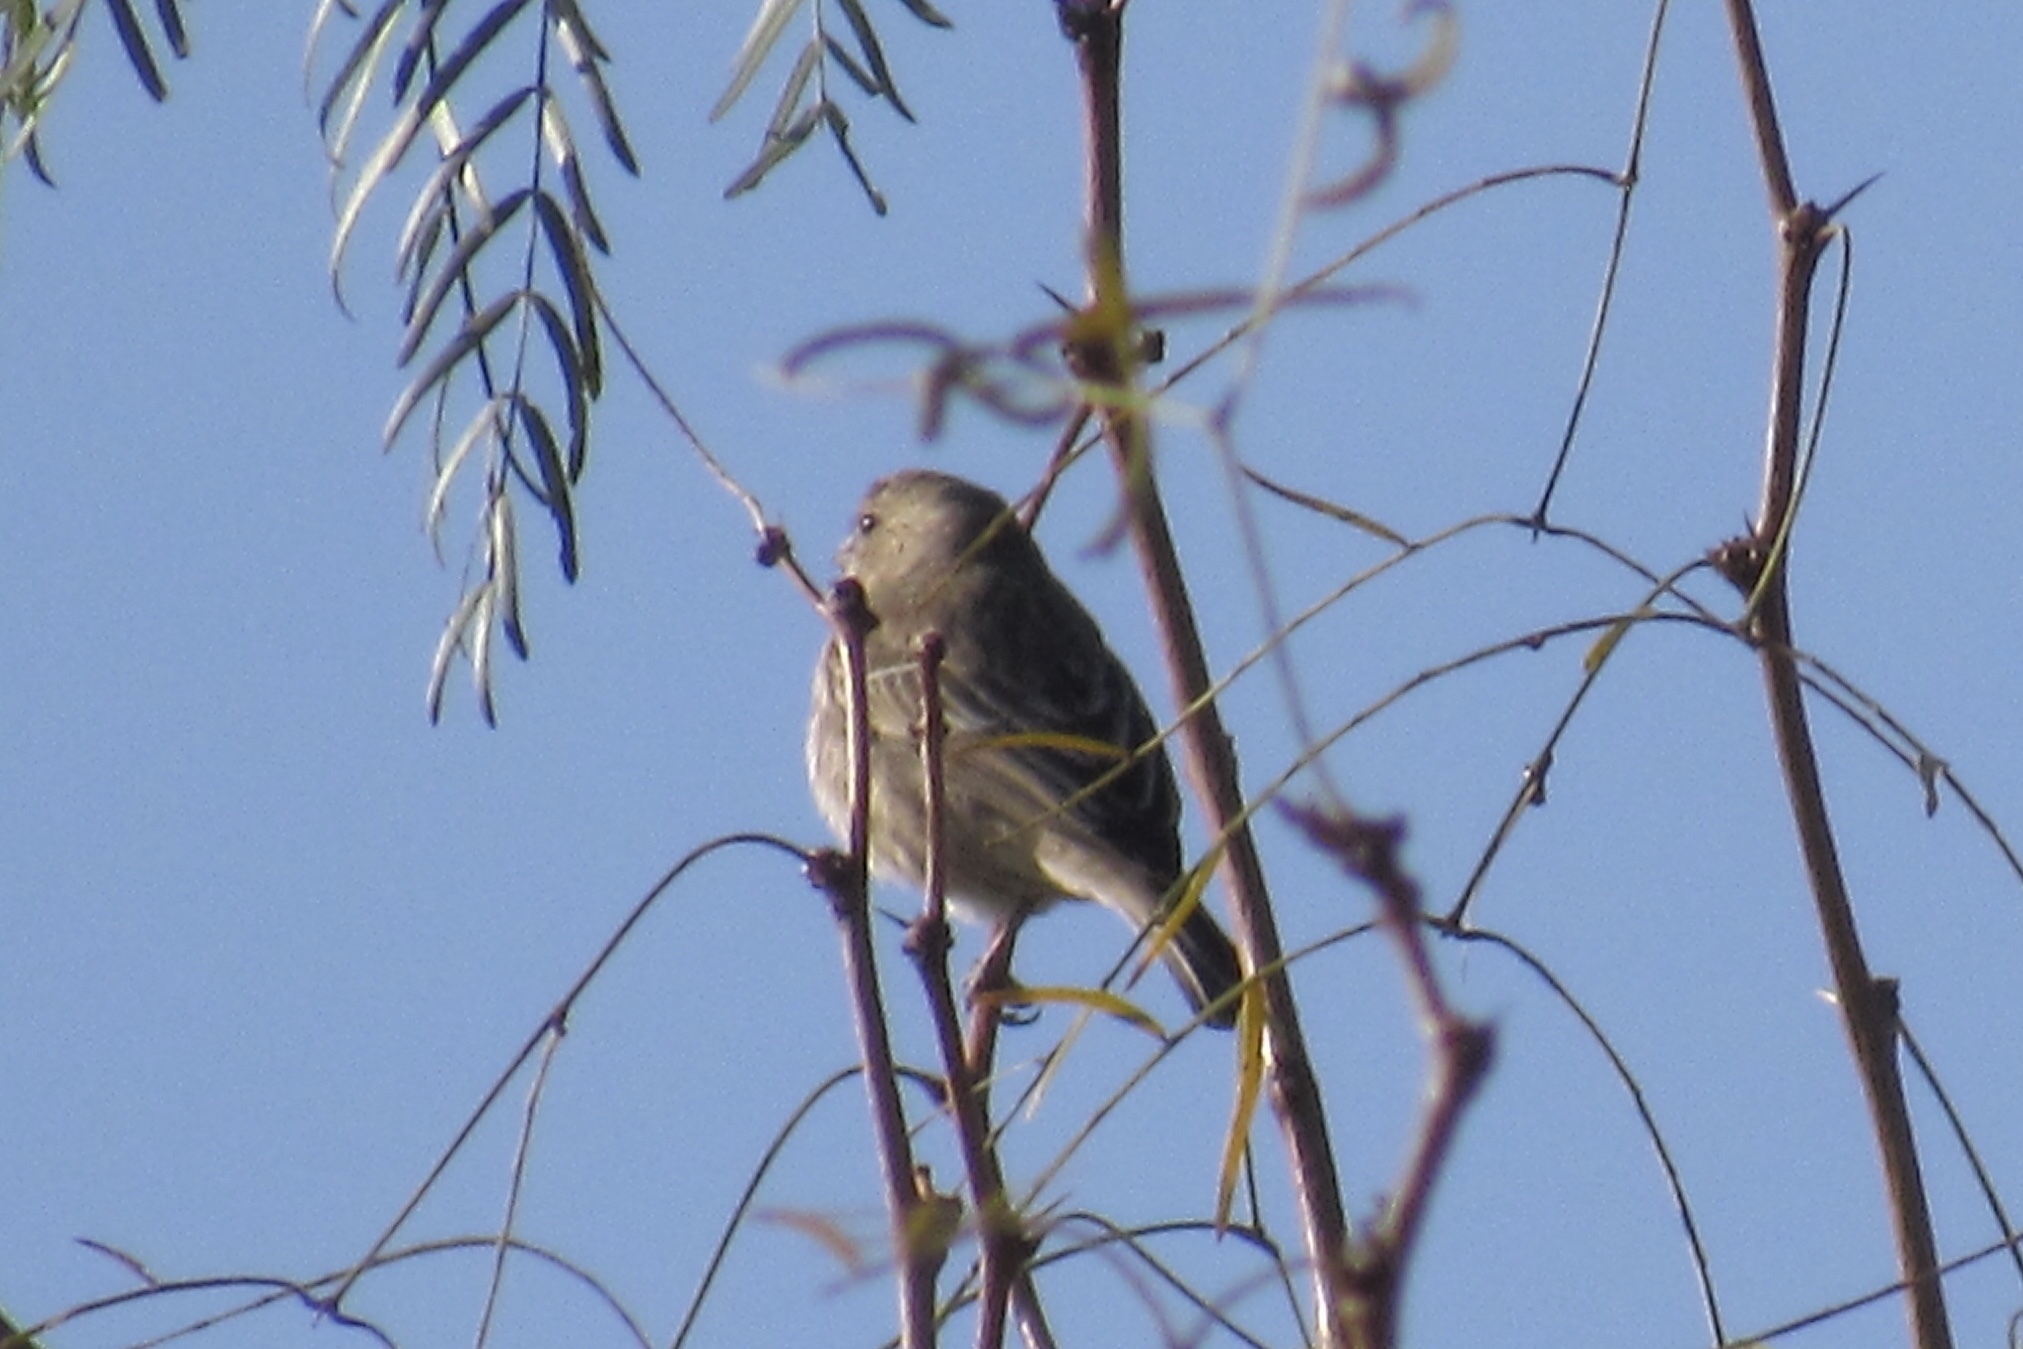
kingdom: Animalia
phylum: Chordata
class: Aves
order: Passeriformes
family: Fringillidae
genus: Haemorhous
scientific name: Haemorhous mexicanus
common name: House finch
